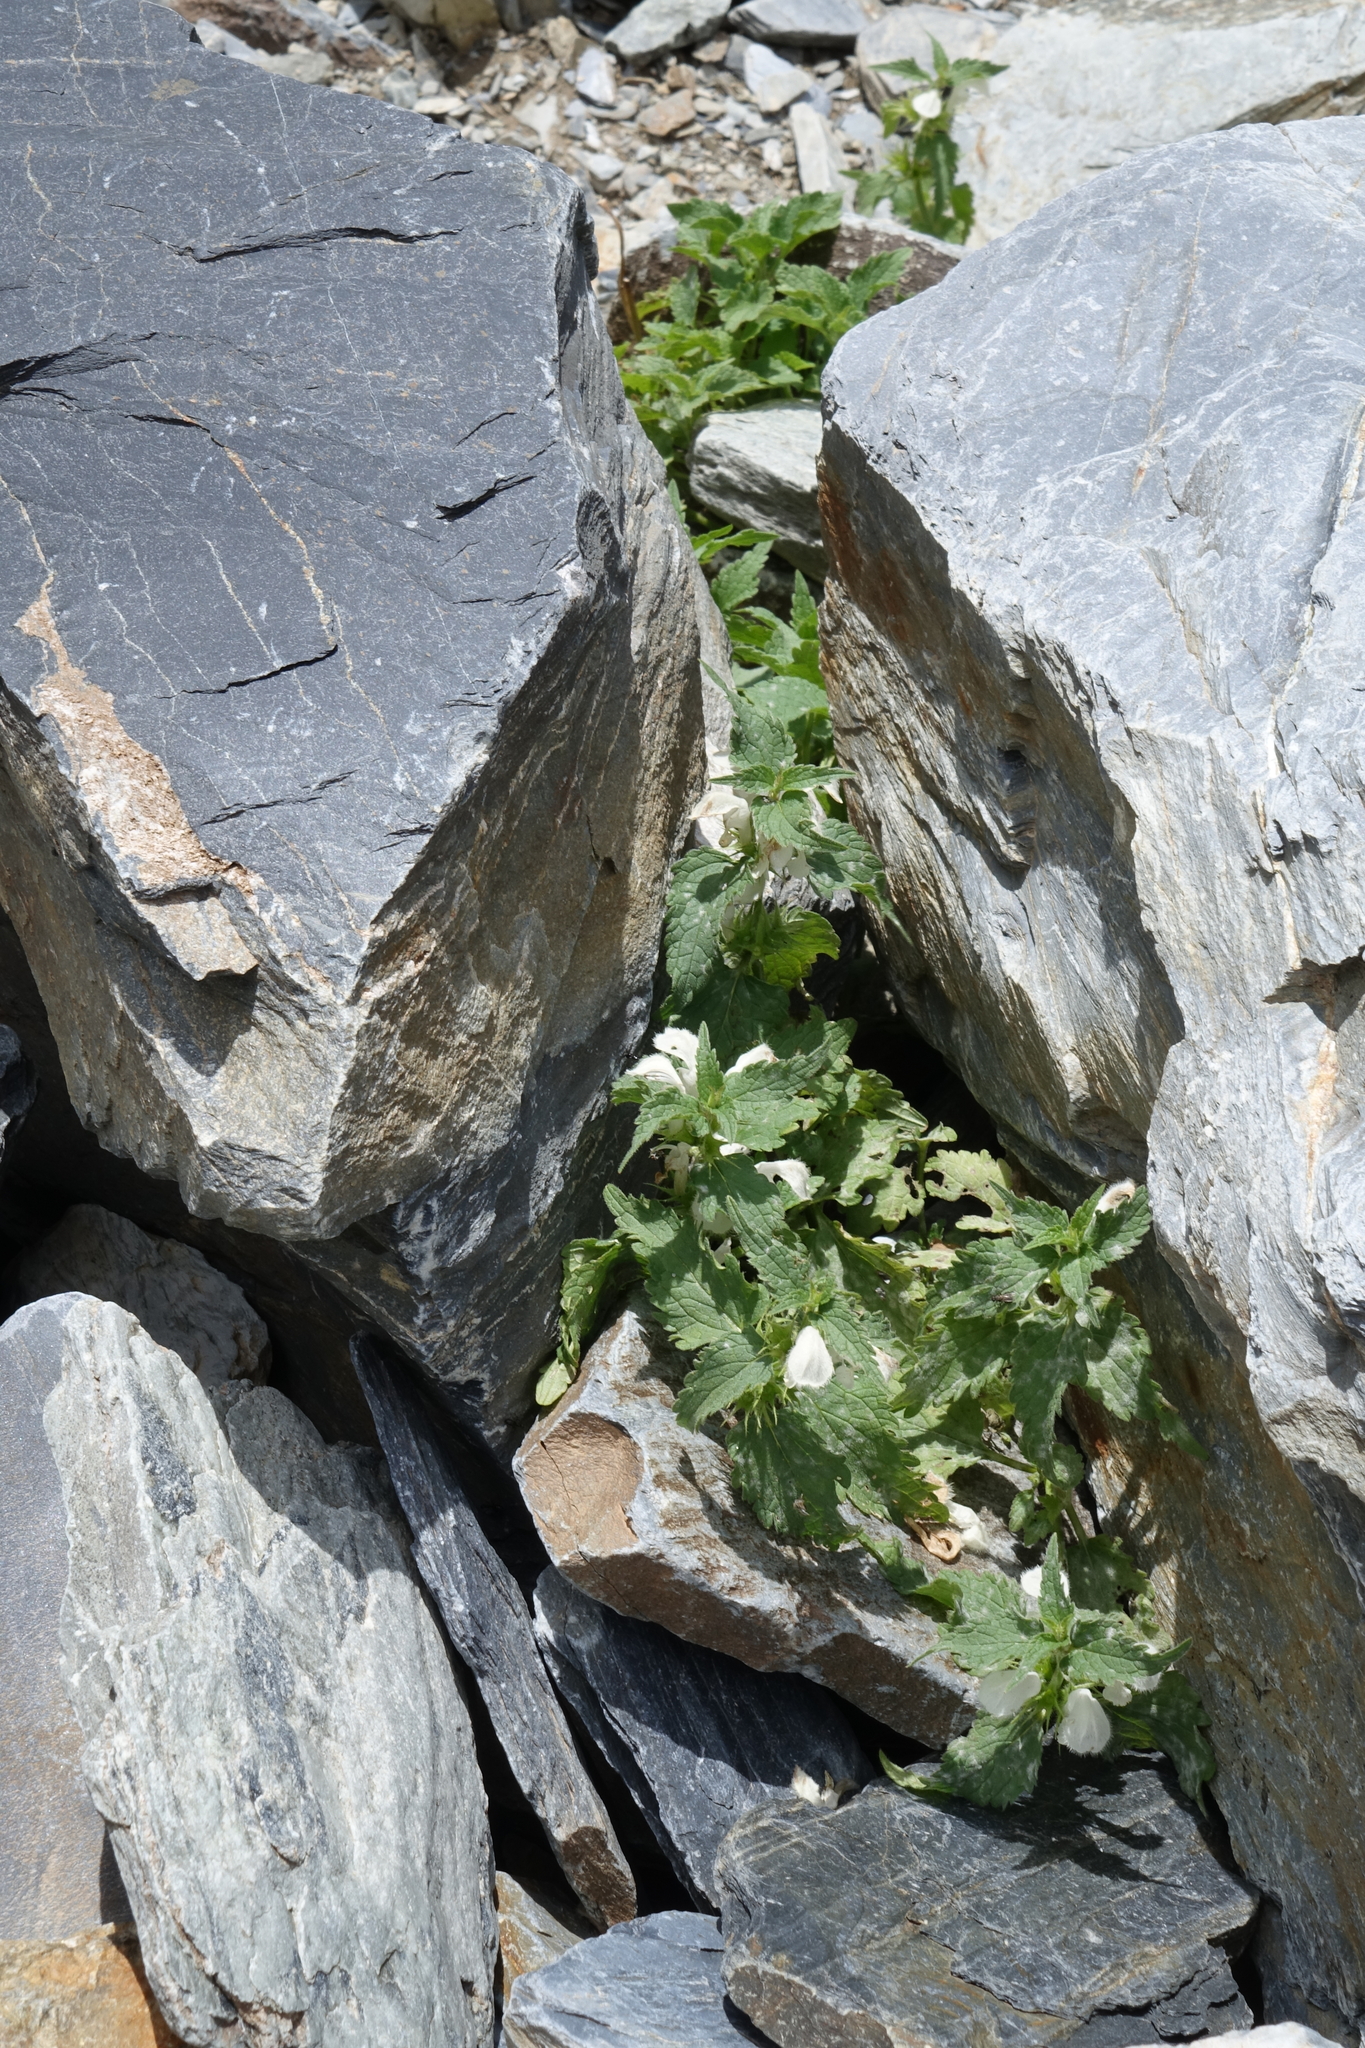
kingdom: Plantae
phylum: Tracheophyta
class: Magnoliopsida
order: Lamiales
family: Lamiaceae
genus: Lamium
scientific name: Lamium album
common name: White dead-nettle
